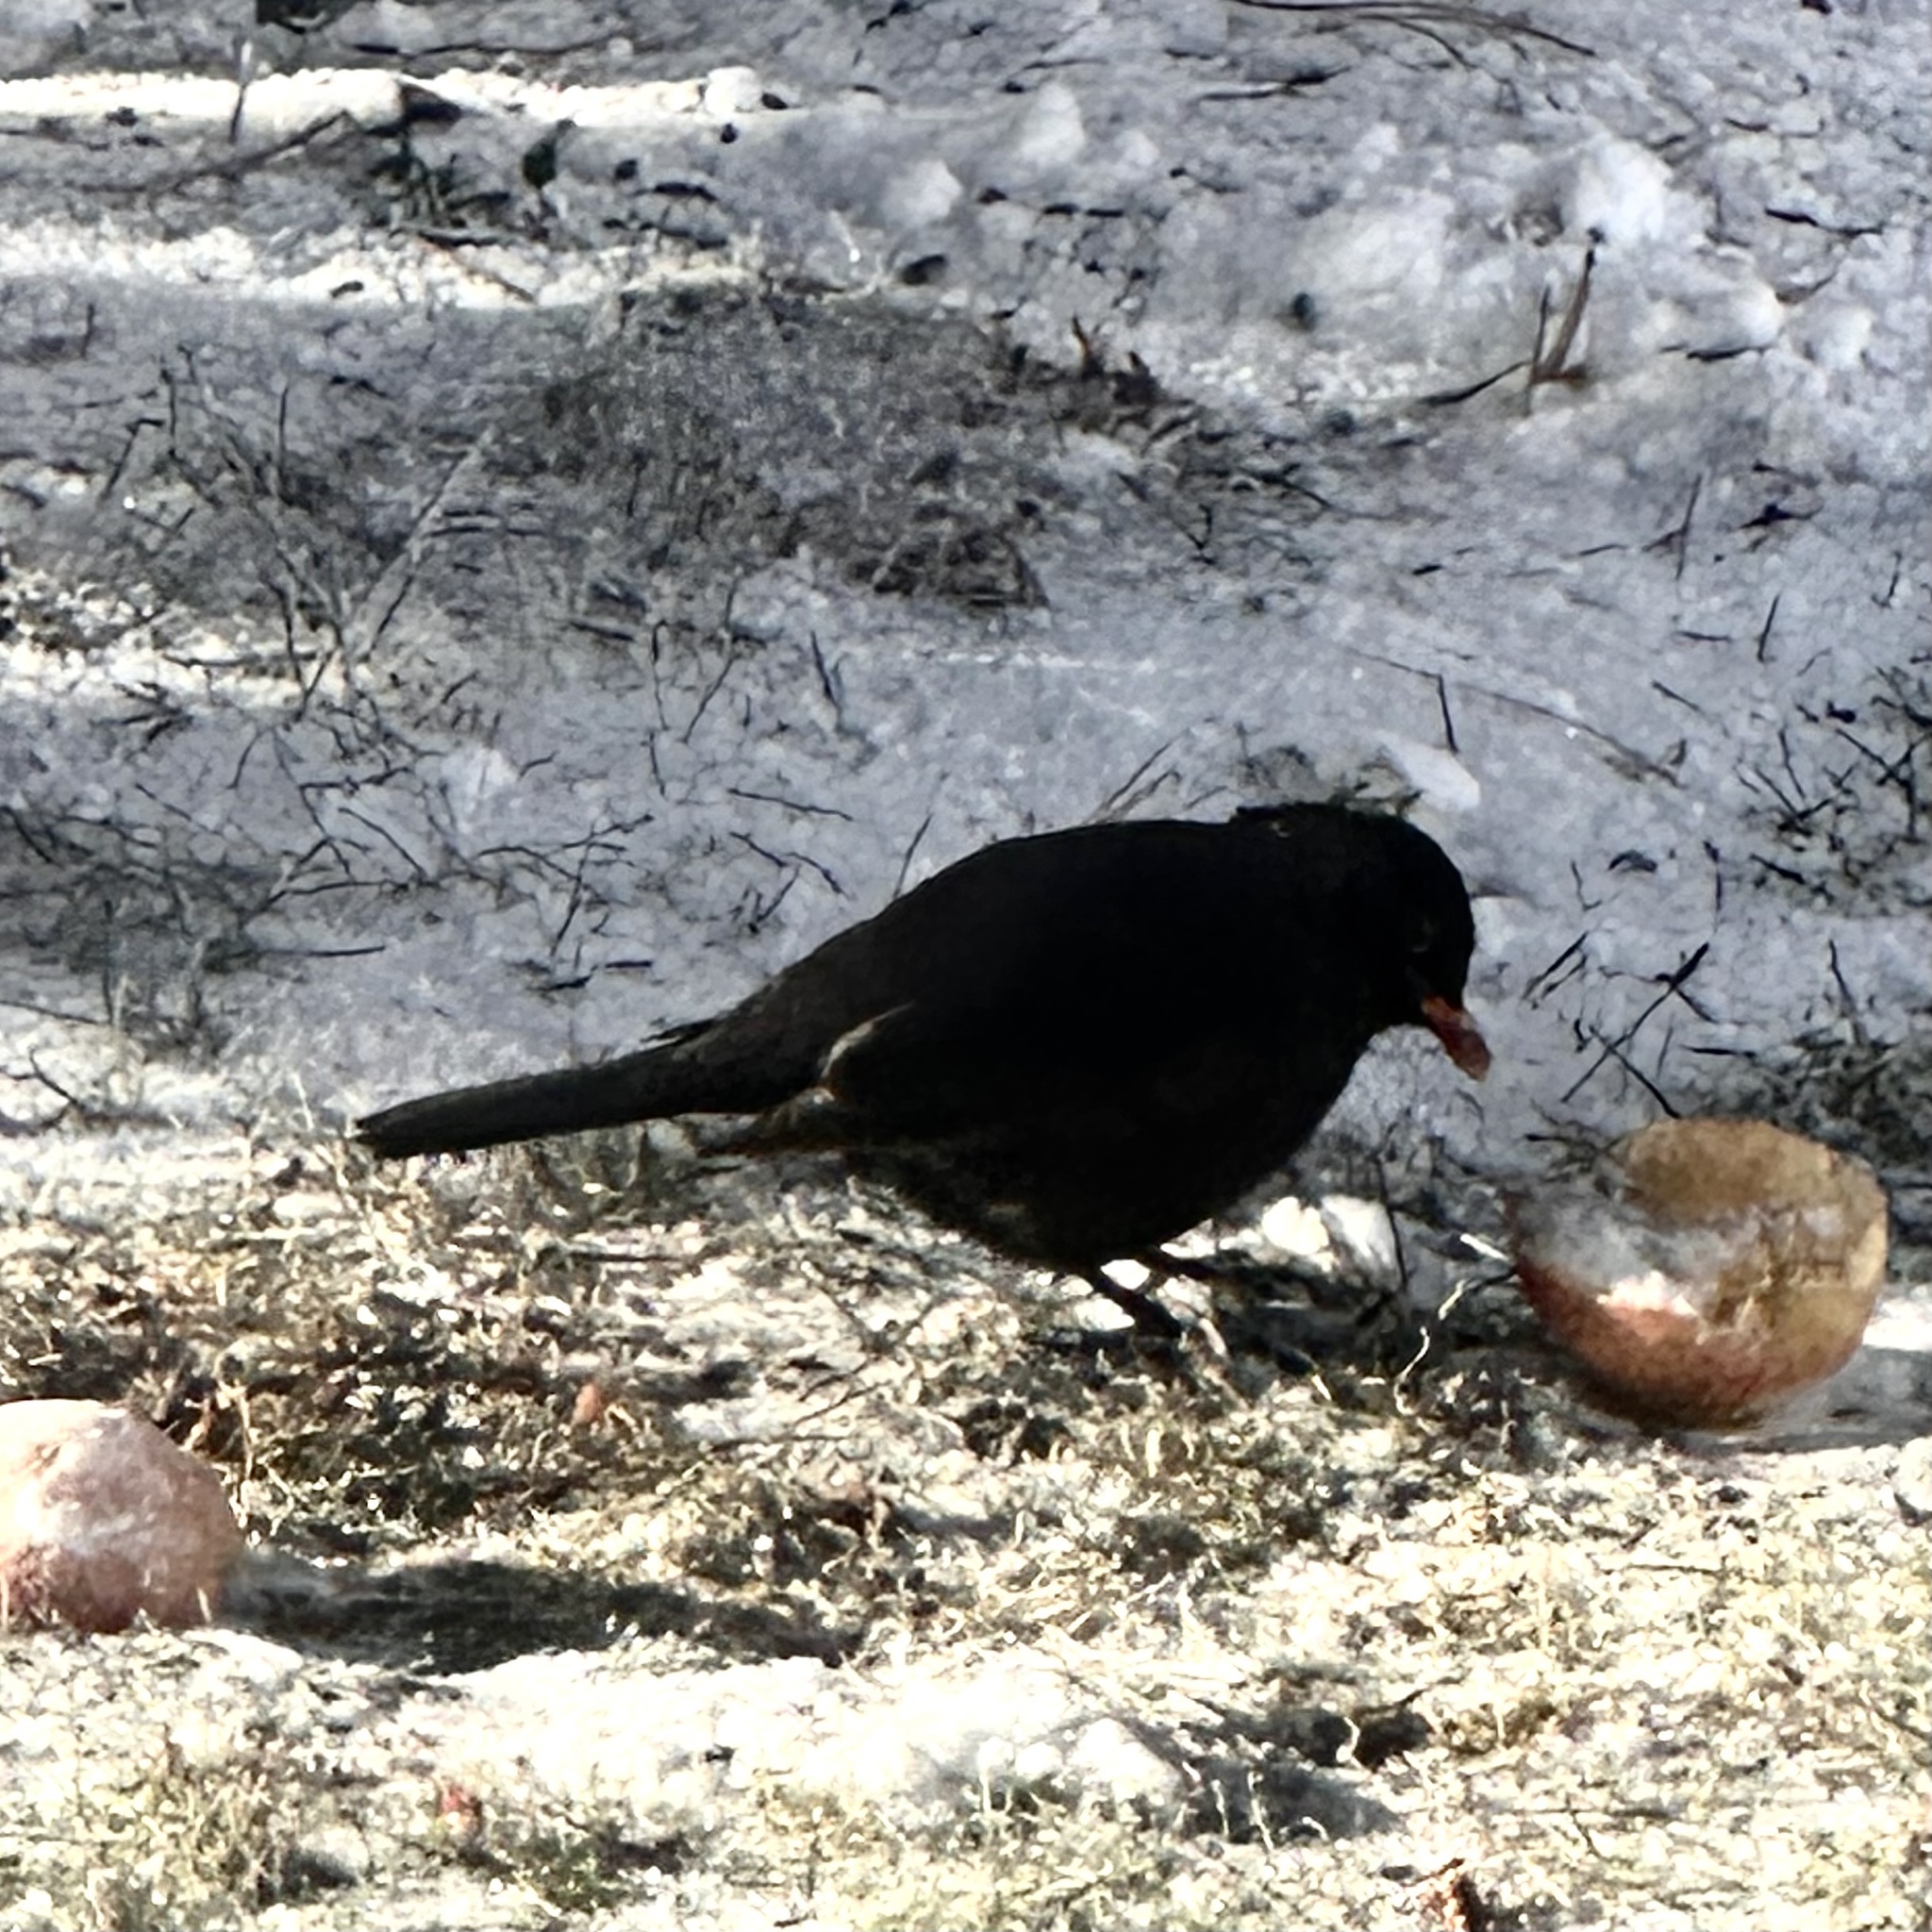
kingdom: Animalia
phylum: Chordata
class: Aves
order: Passeriformes
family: Turdidae
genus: Turdus
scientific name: Turdus merula
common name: Common blackbird
